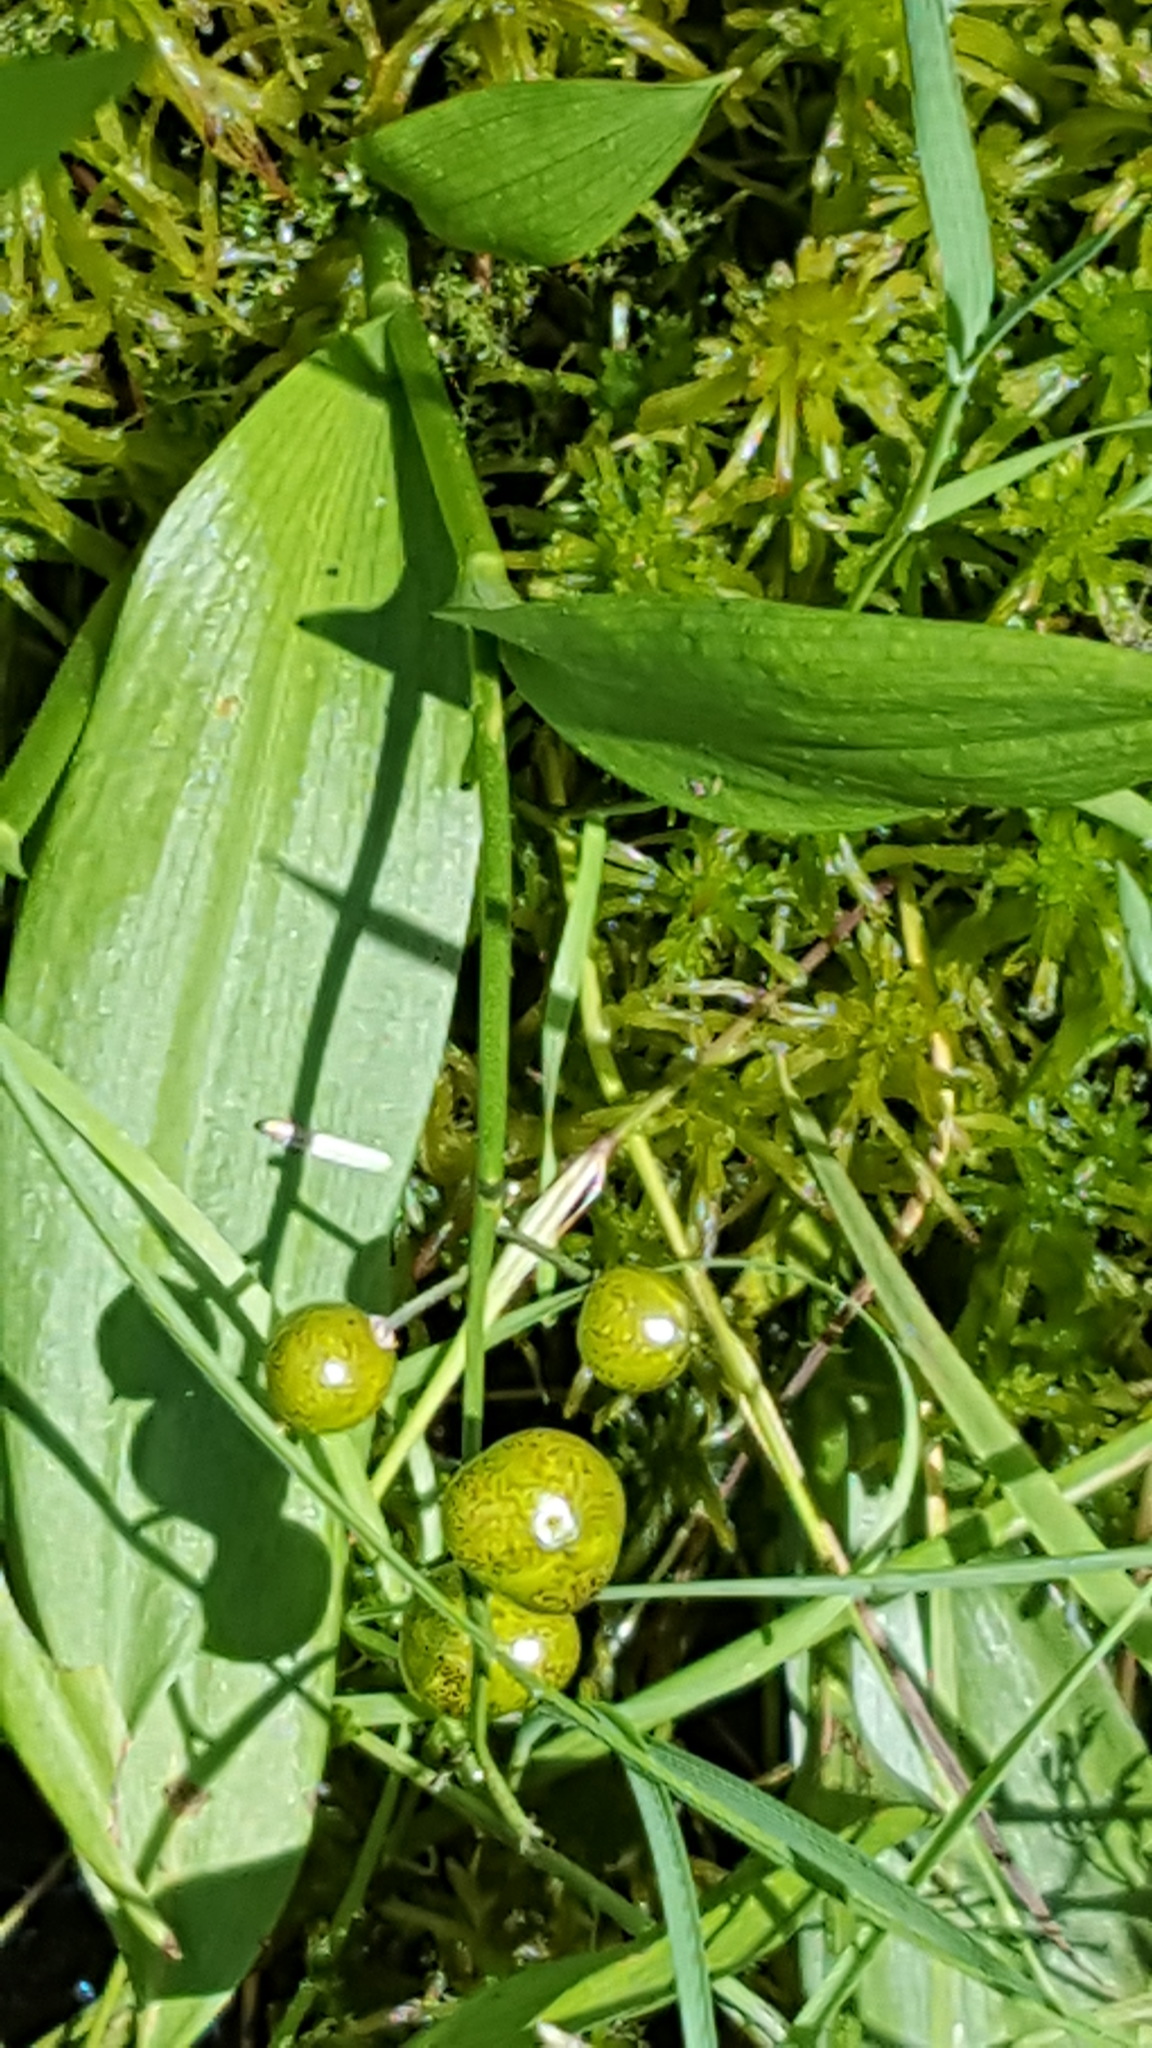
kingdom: Plantae
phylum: Tracheophyta
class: Liliopsida
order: Asparagales
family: Asparagaceae
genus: Maianthemum
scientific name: Maianthemum trifolium
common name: Swamp false solomon's seal
